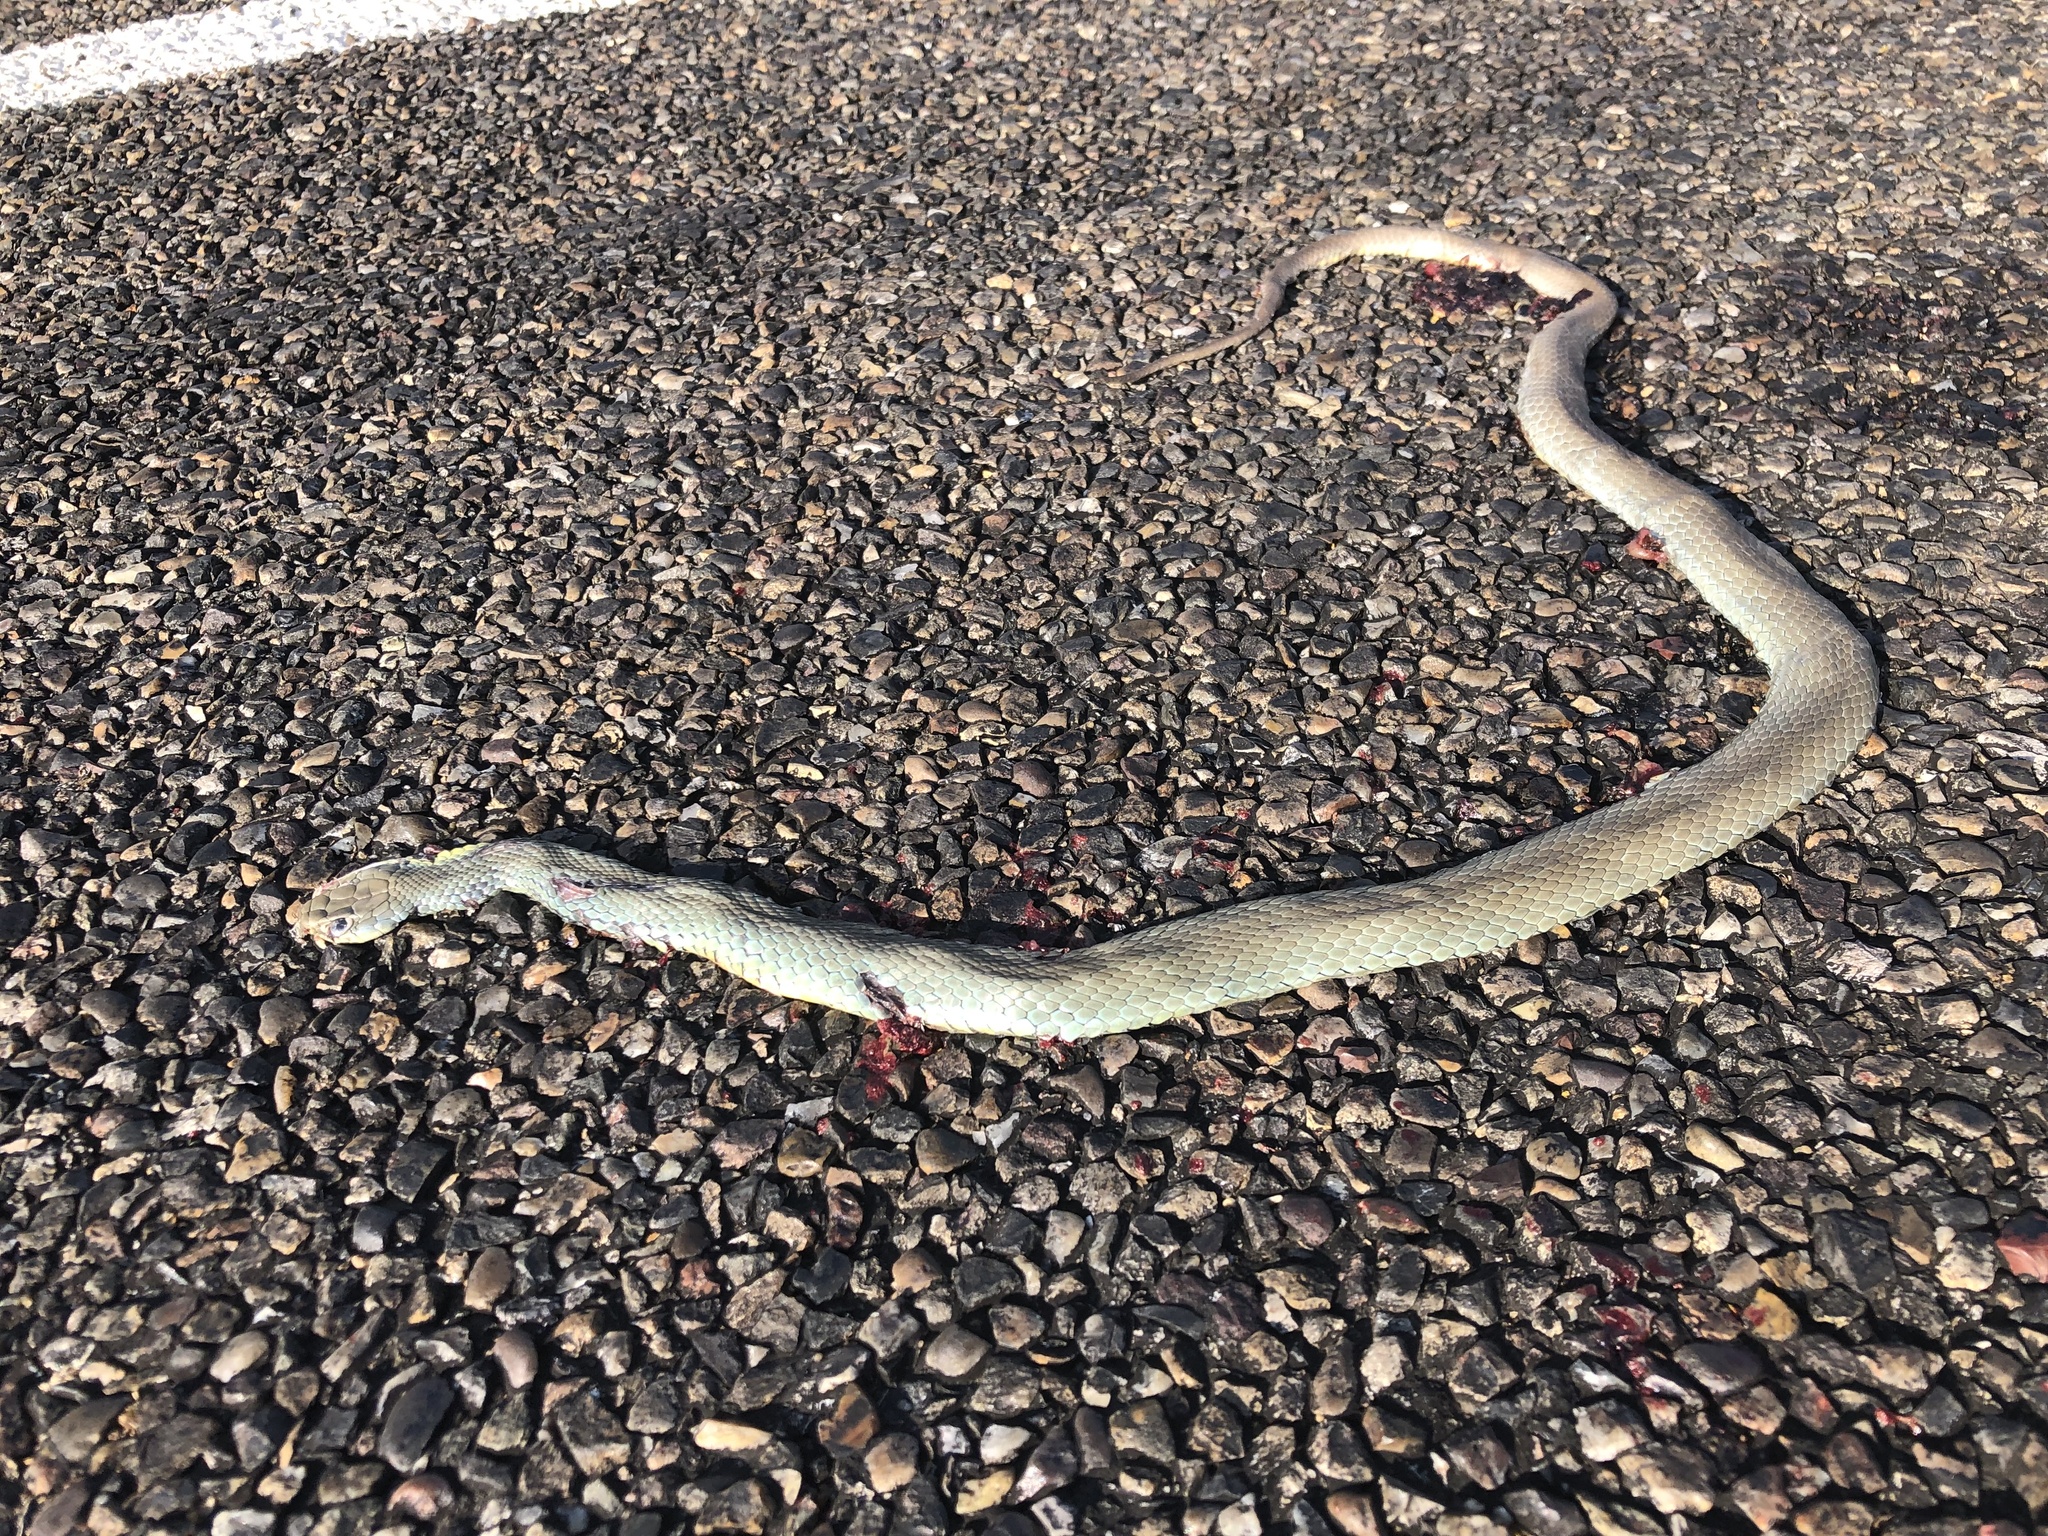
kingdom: Animalia
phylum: Chordata
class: Squamata
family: Colubridae
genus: Coluber
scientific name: Coluber constrictor
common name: Eastern racer
